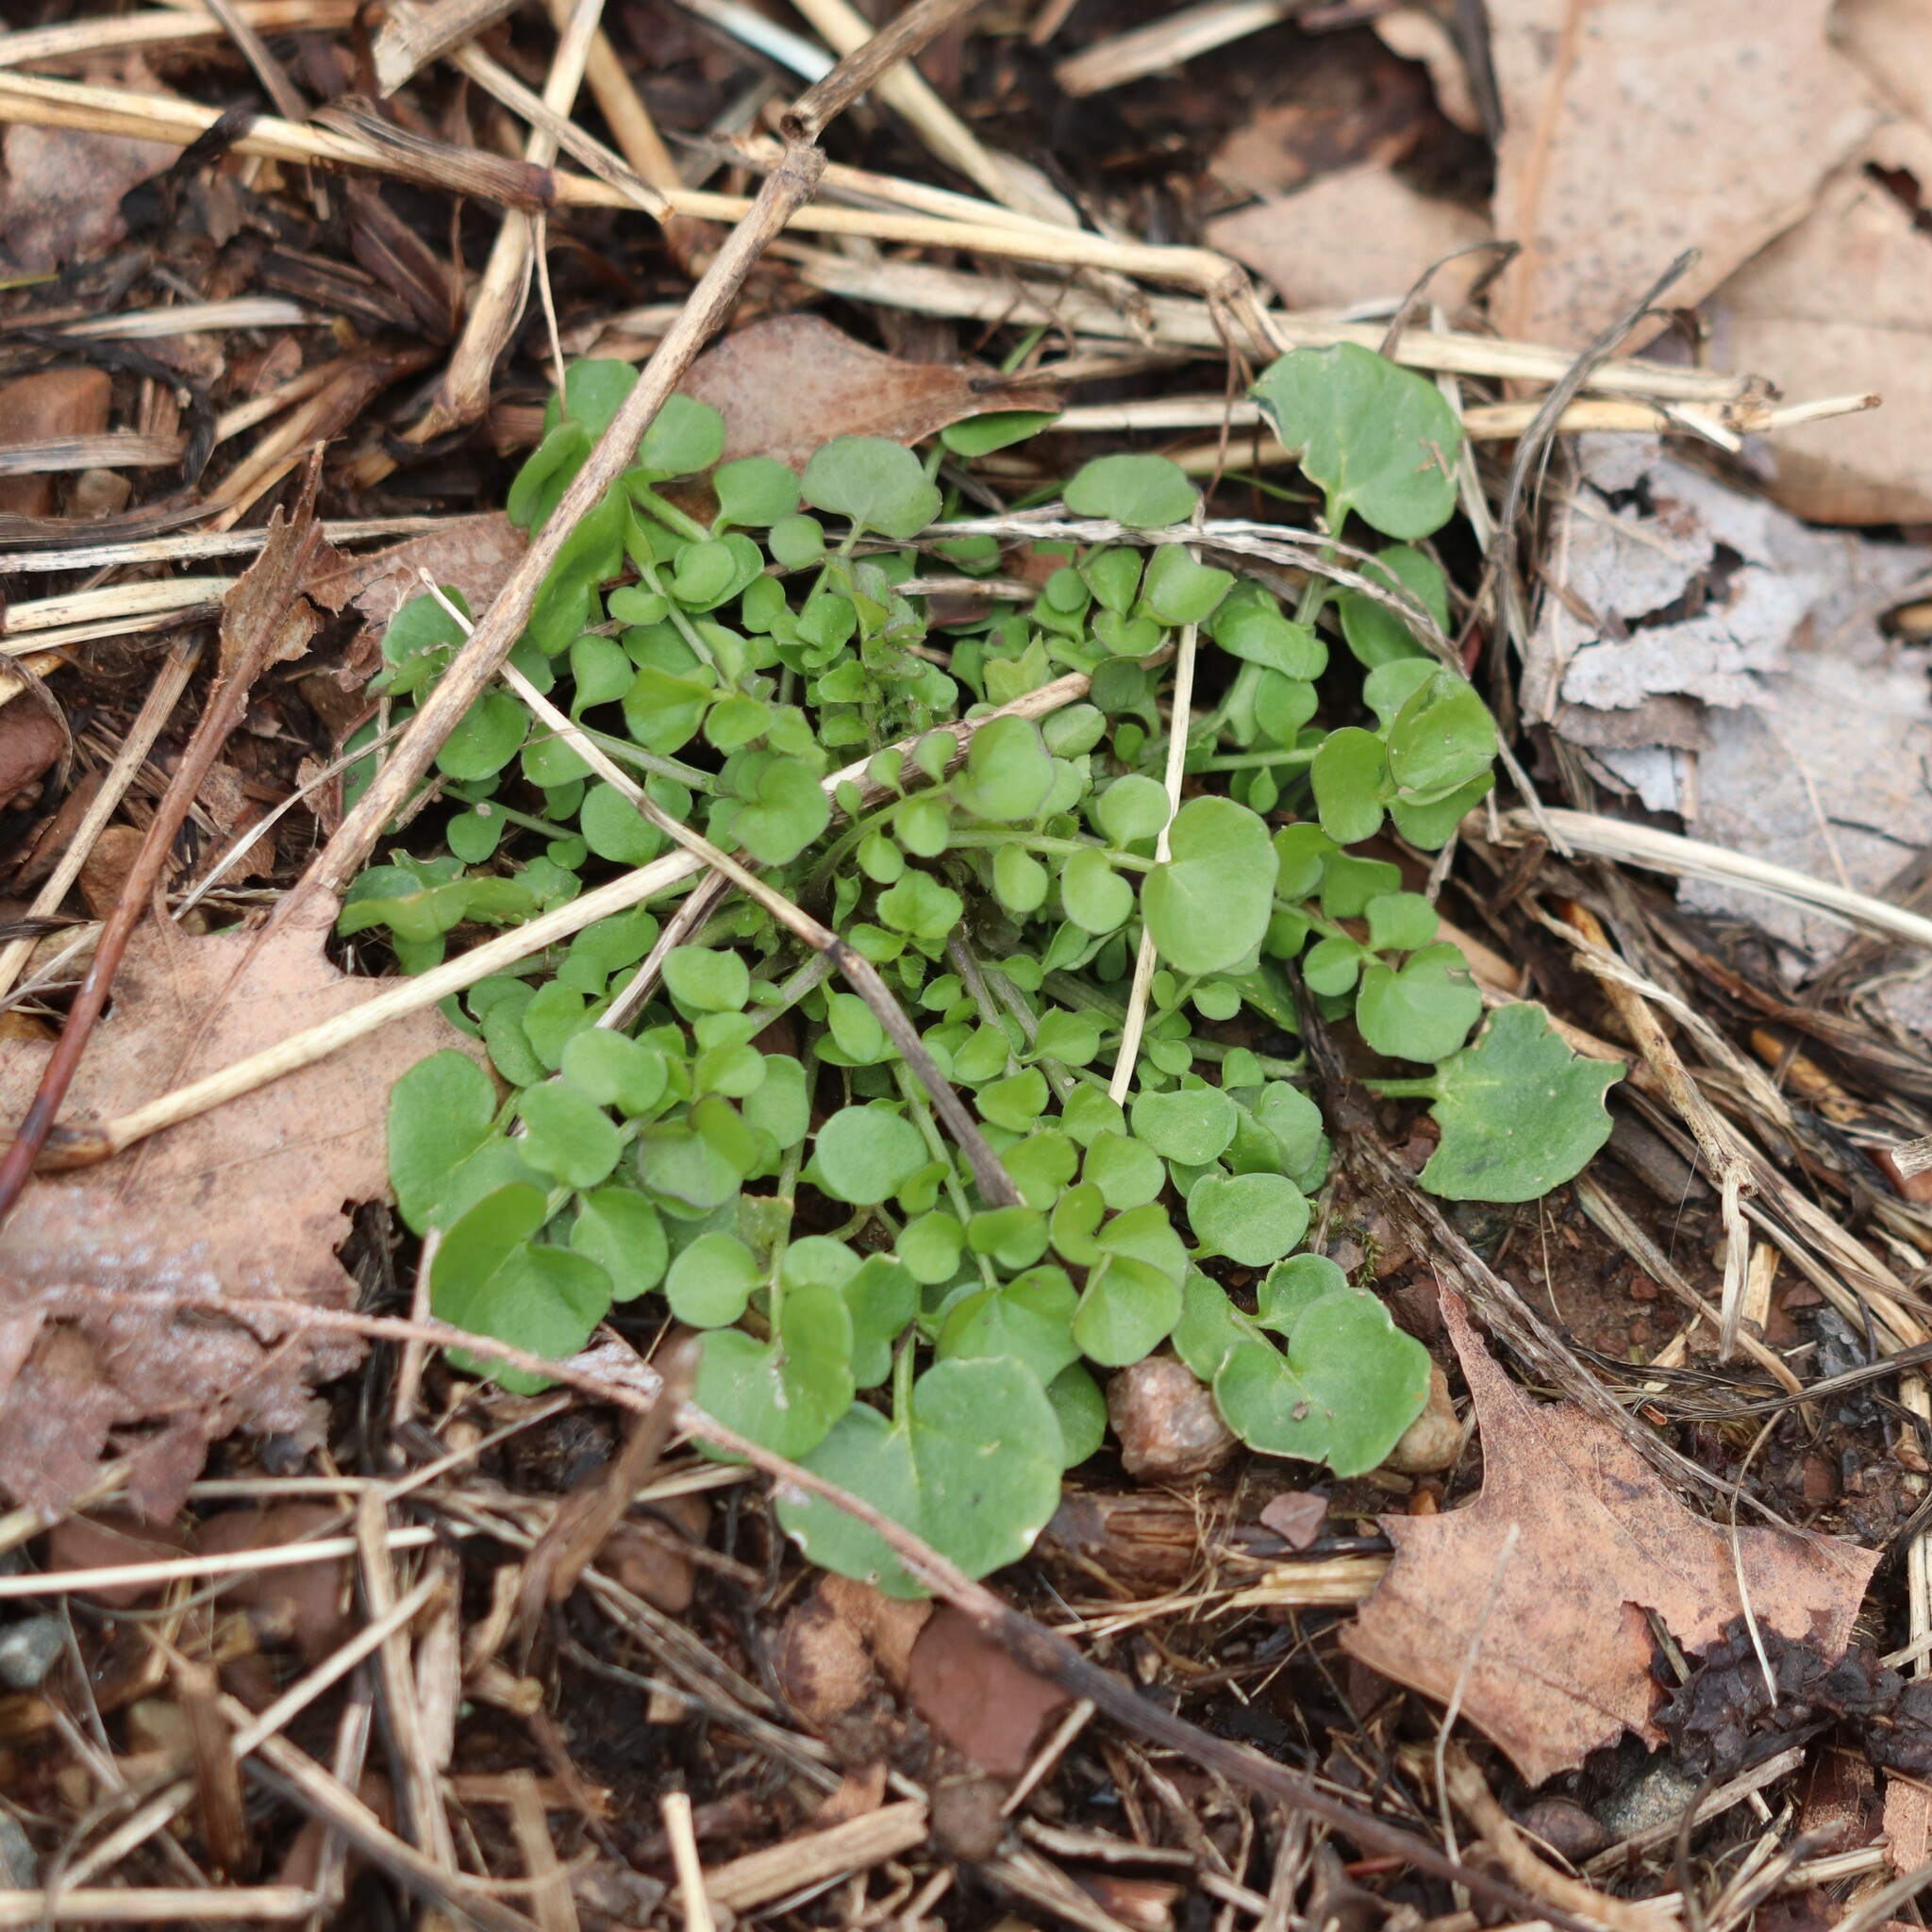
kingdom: Plantae
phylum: Tracheophyta
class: Magnoliopsida
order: Brassicales
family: Brassicaceae
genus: Cardamine
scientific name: Cardamine hirsuta
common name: Hairy bittercress
